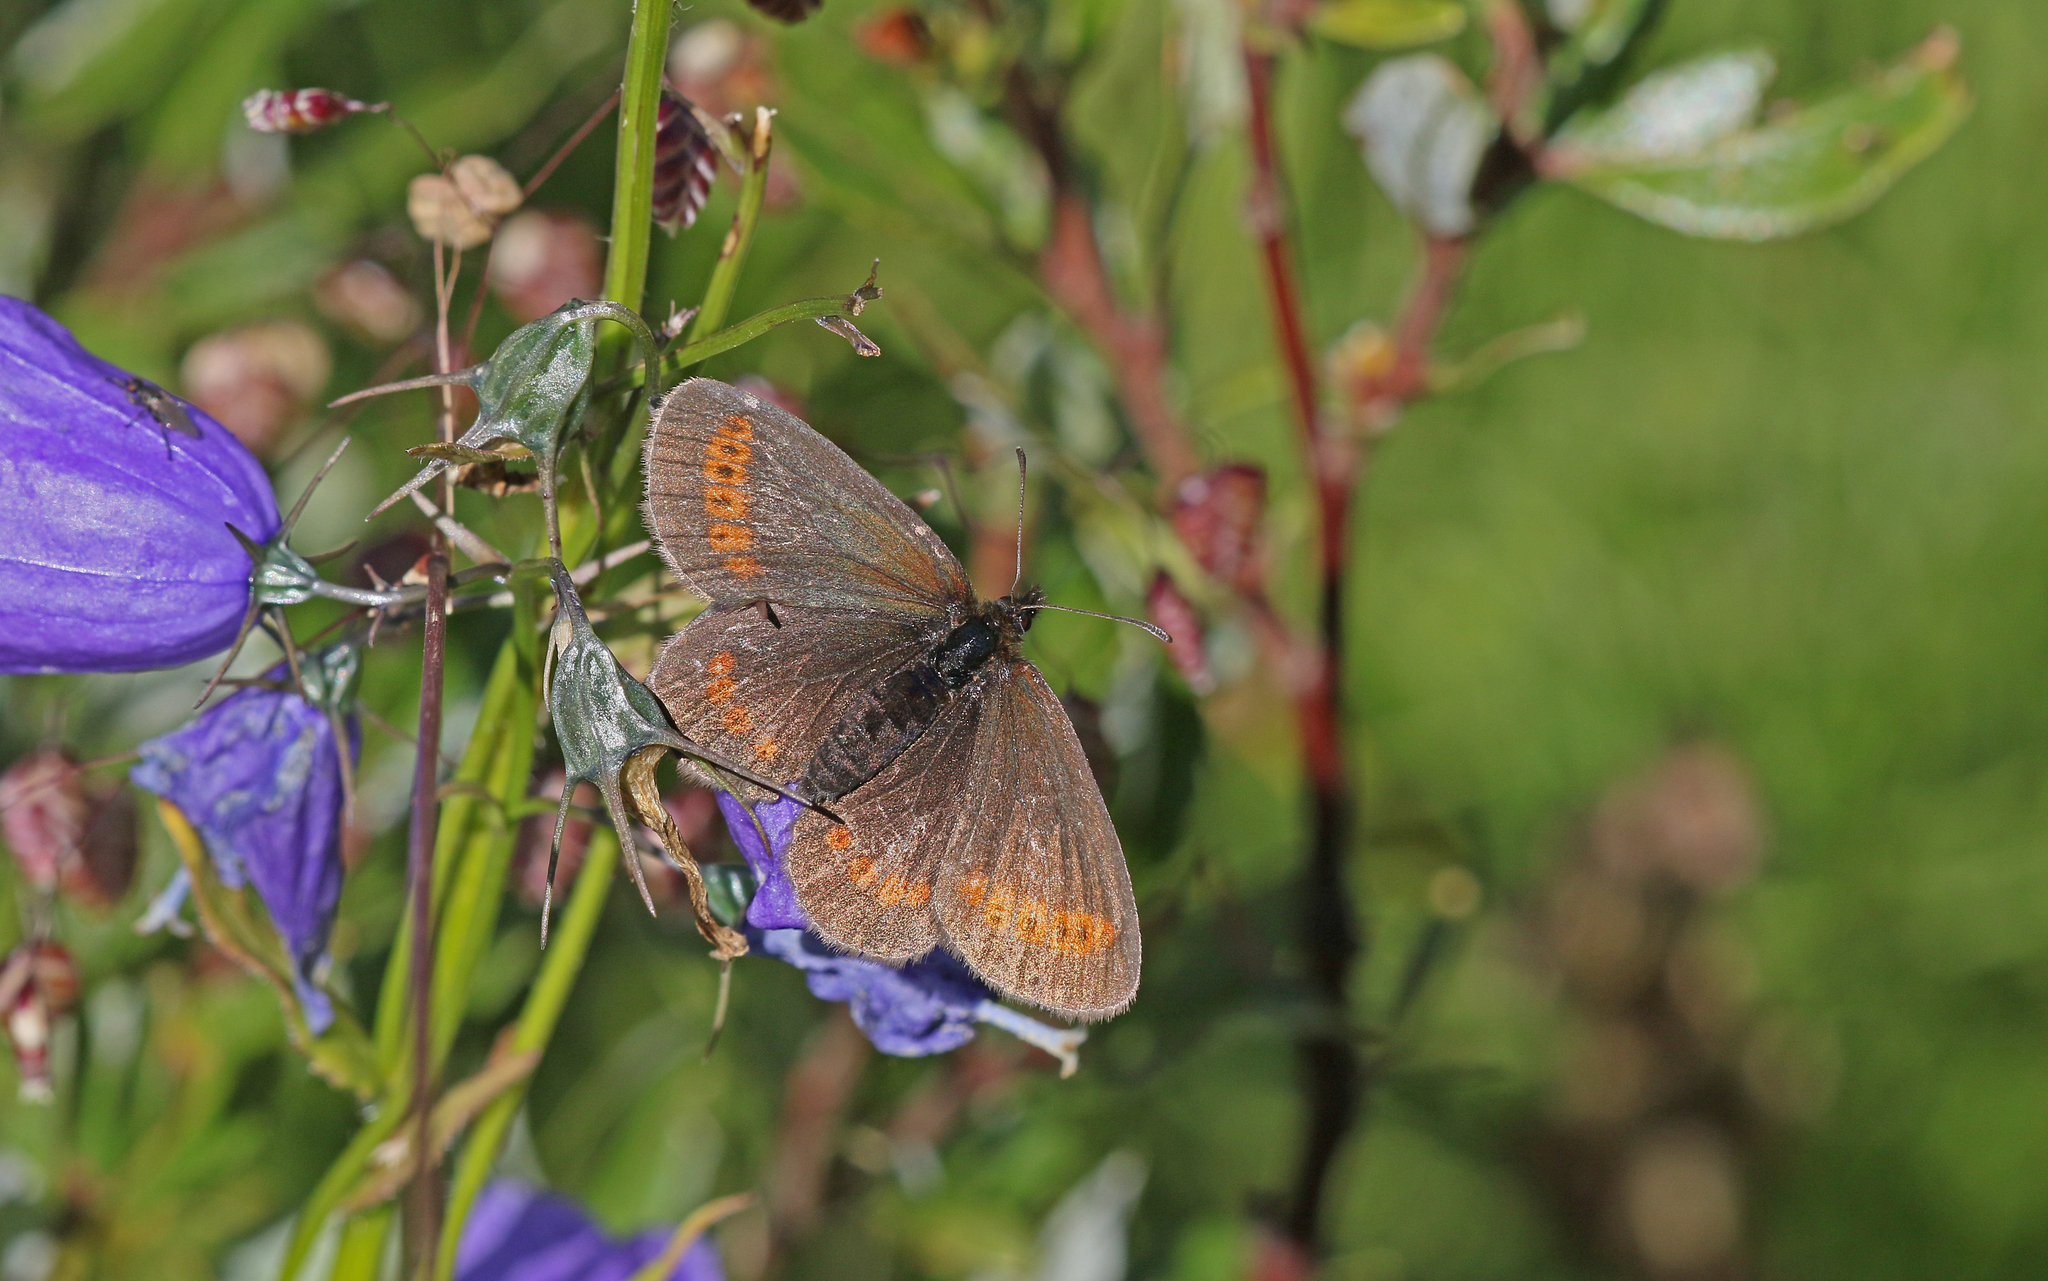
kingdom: Animalia
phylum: Arthropoda
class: Insecta
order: Lepidoptera
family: Nymphalidae
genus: Erebia
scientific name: Erebia
